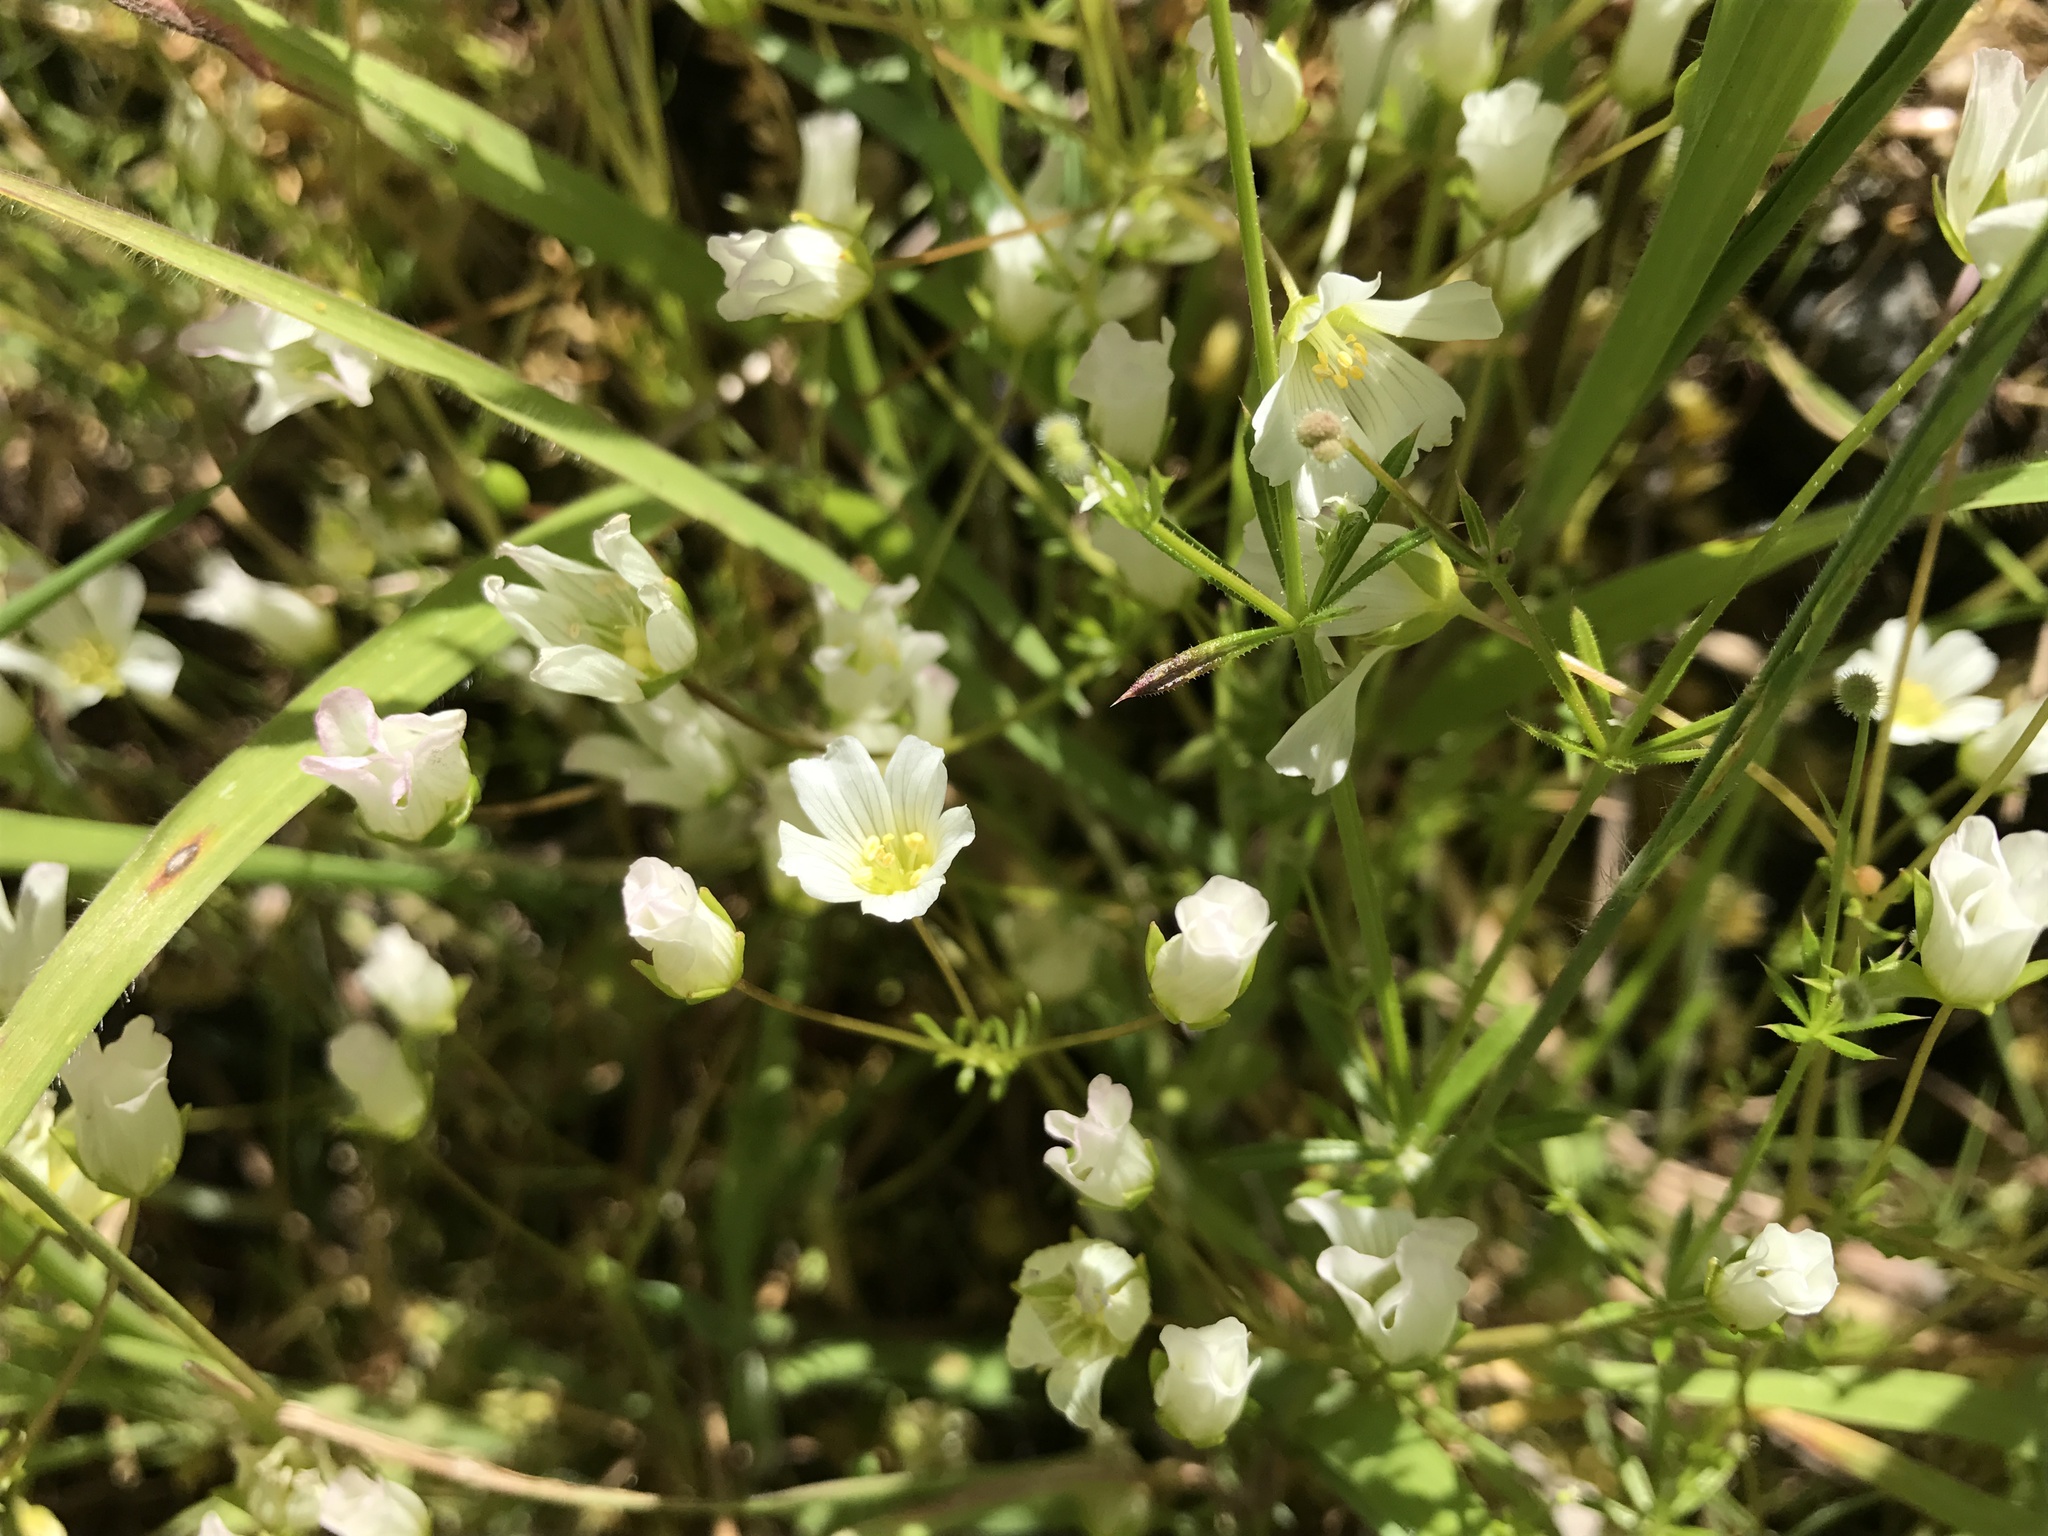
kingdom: Plantae
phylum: Tracheophyta
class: Magnoliopsida
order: Brassicales
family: Limnanthaceae
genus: Limnanthes
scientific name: Limnanthes alba
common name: Meadowfoam
